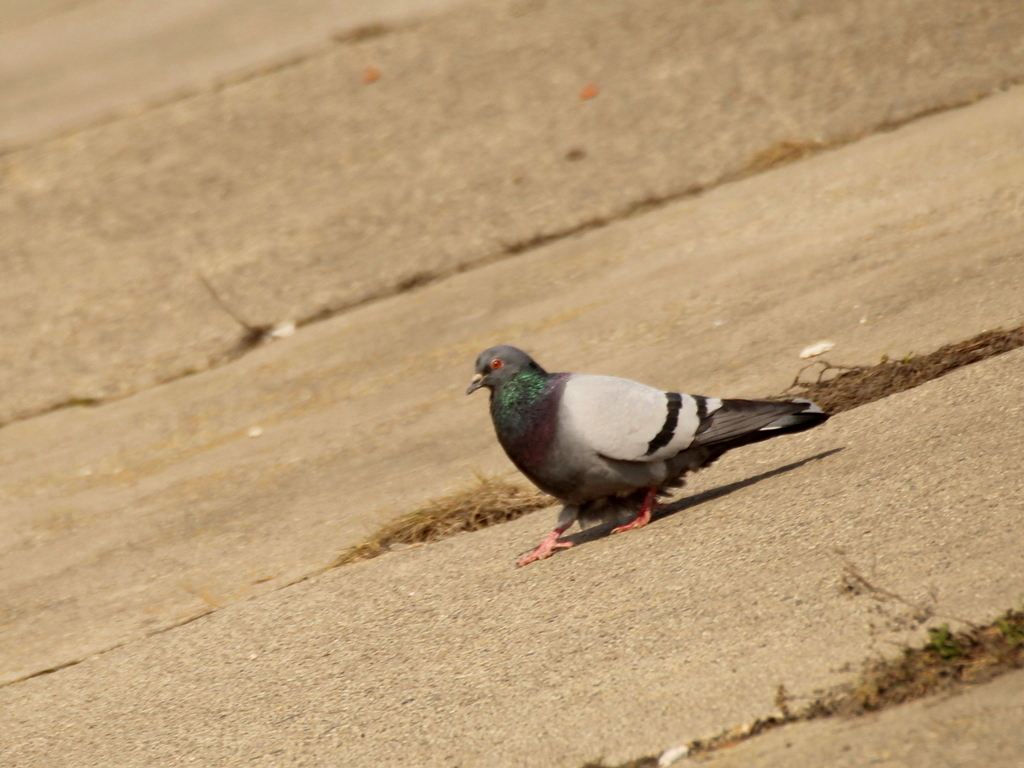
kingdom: Animalia
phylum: Chordata
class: Aves
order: Columbiformes
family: Columbidae
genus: Columba
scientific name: Columba livia
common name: Rock pigeon
